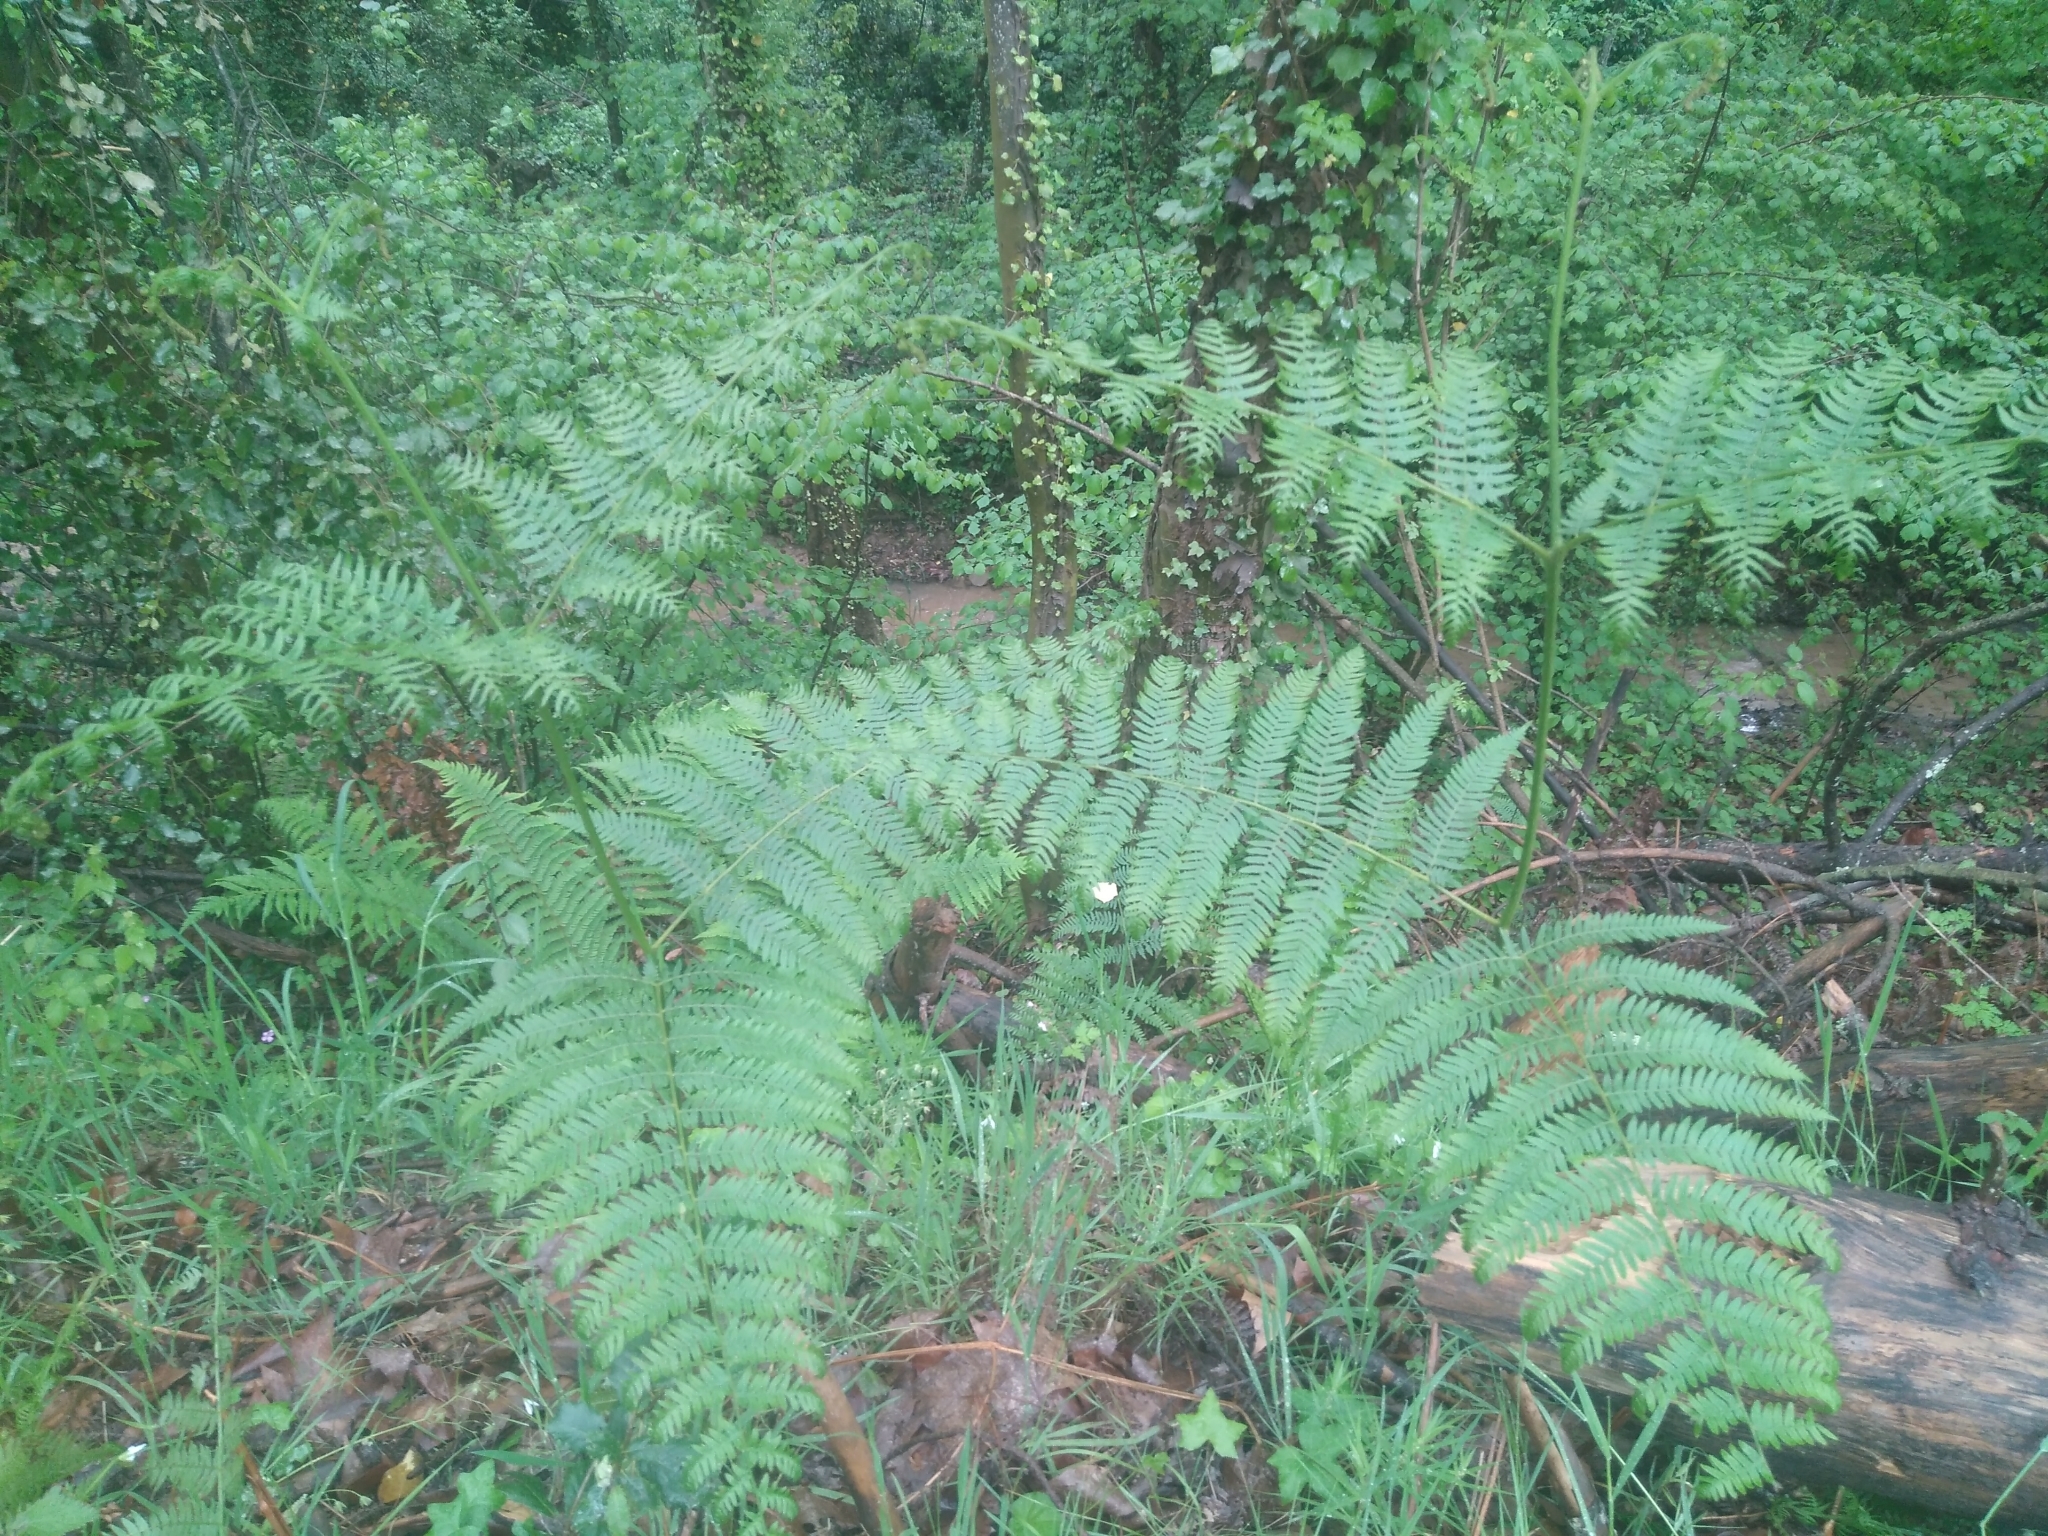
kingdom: Plantae
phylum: Tracheophyta
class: Polypodiopsida
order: Polypodiales
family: Dennstaedtiaceae
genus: Pteridium
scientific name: Pteridium aquilinum
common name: Bracken
